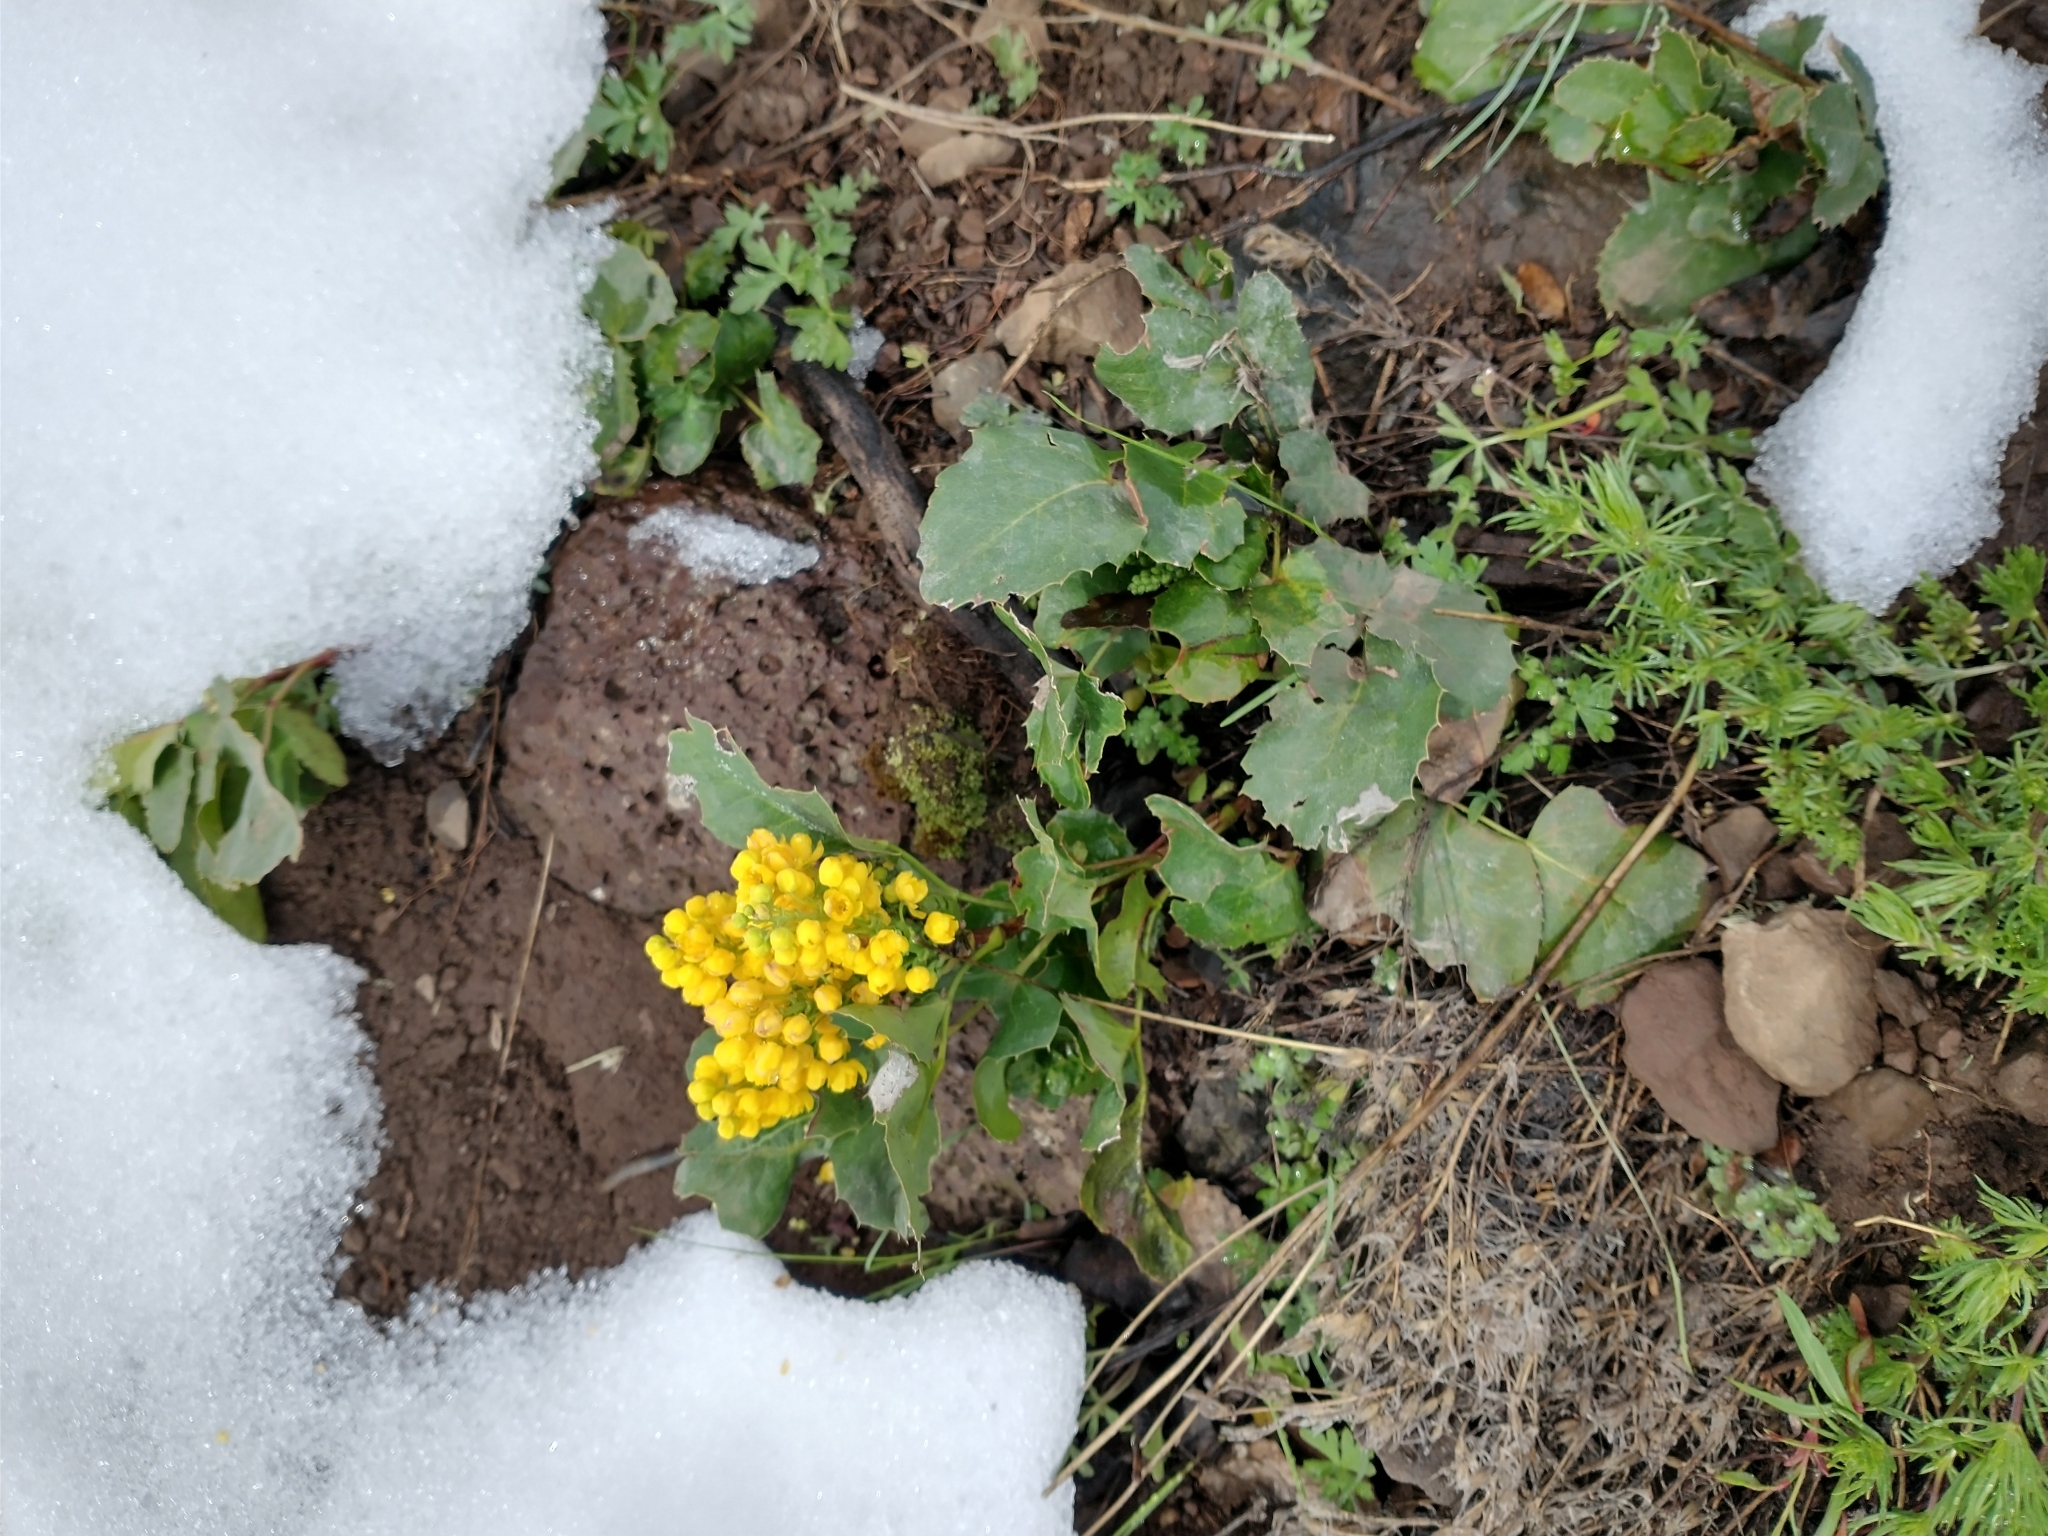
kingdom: Plantae
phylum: Tracheophyta
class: Magnoliopsida
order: Ranunculales
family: Berberidaceae
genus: Mahonia
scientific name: Mahonia repens
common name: Creeping oregon-grape
